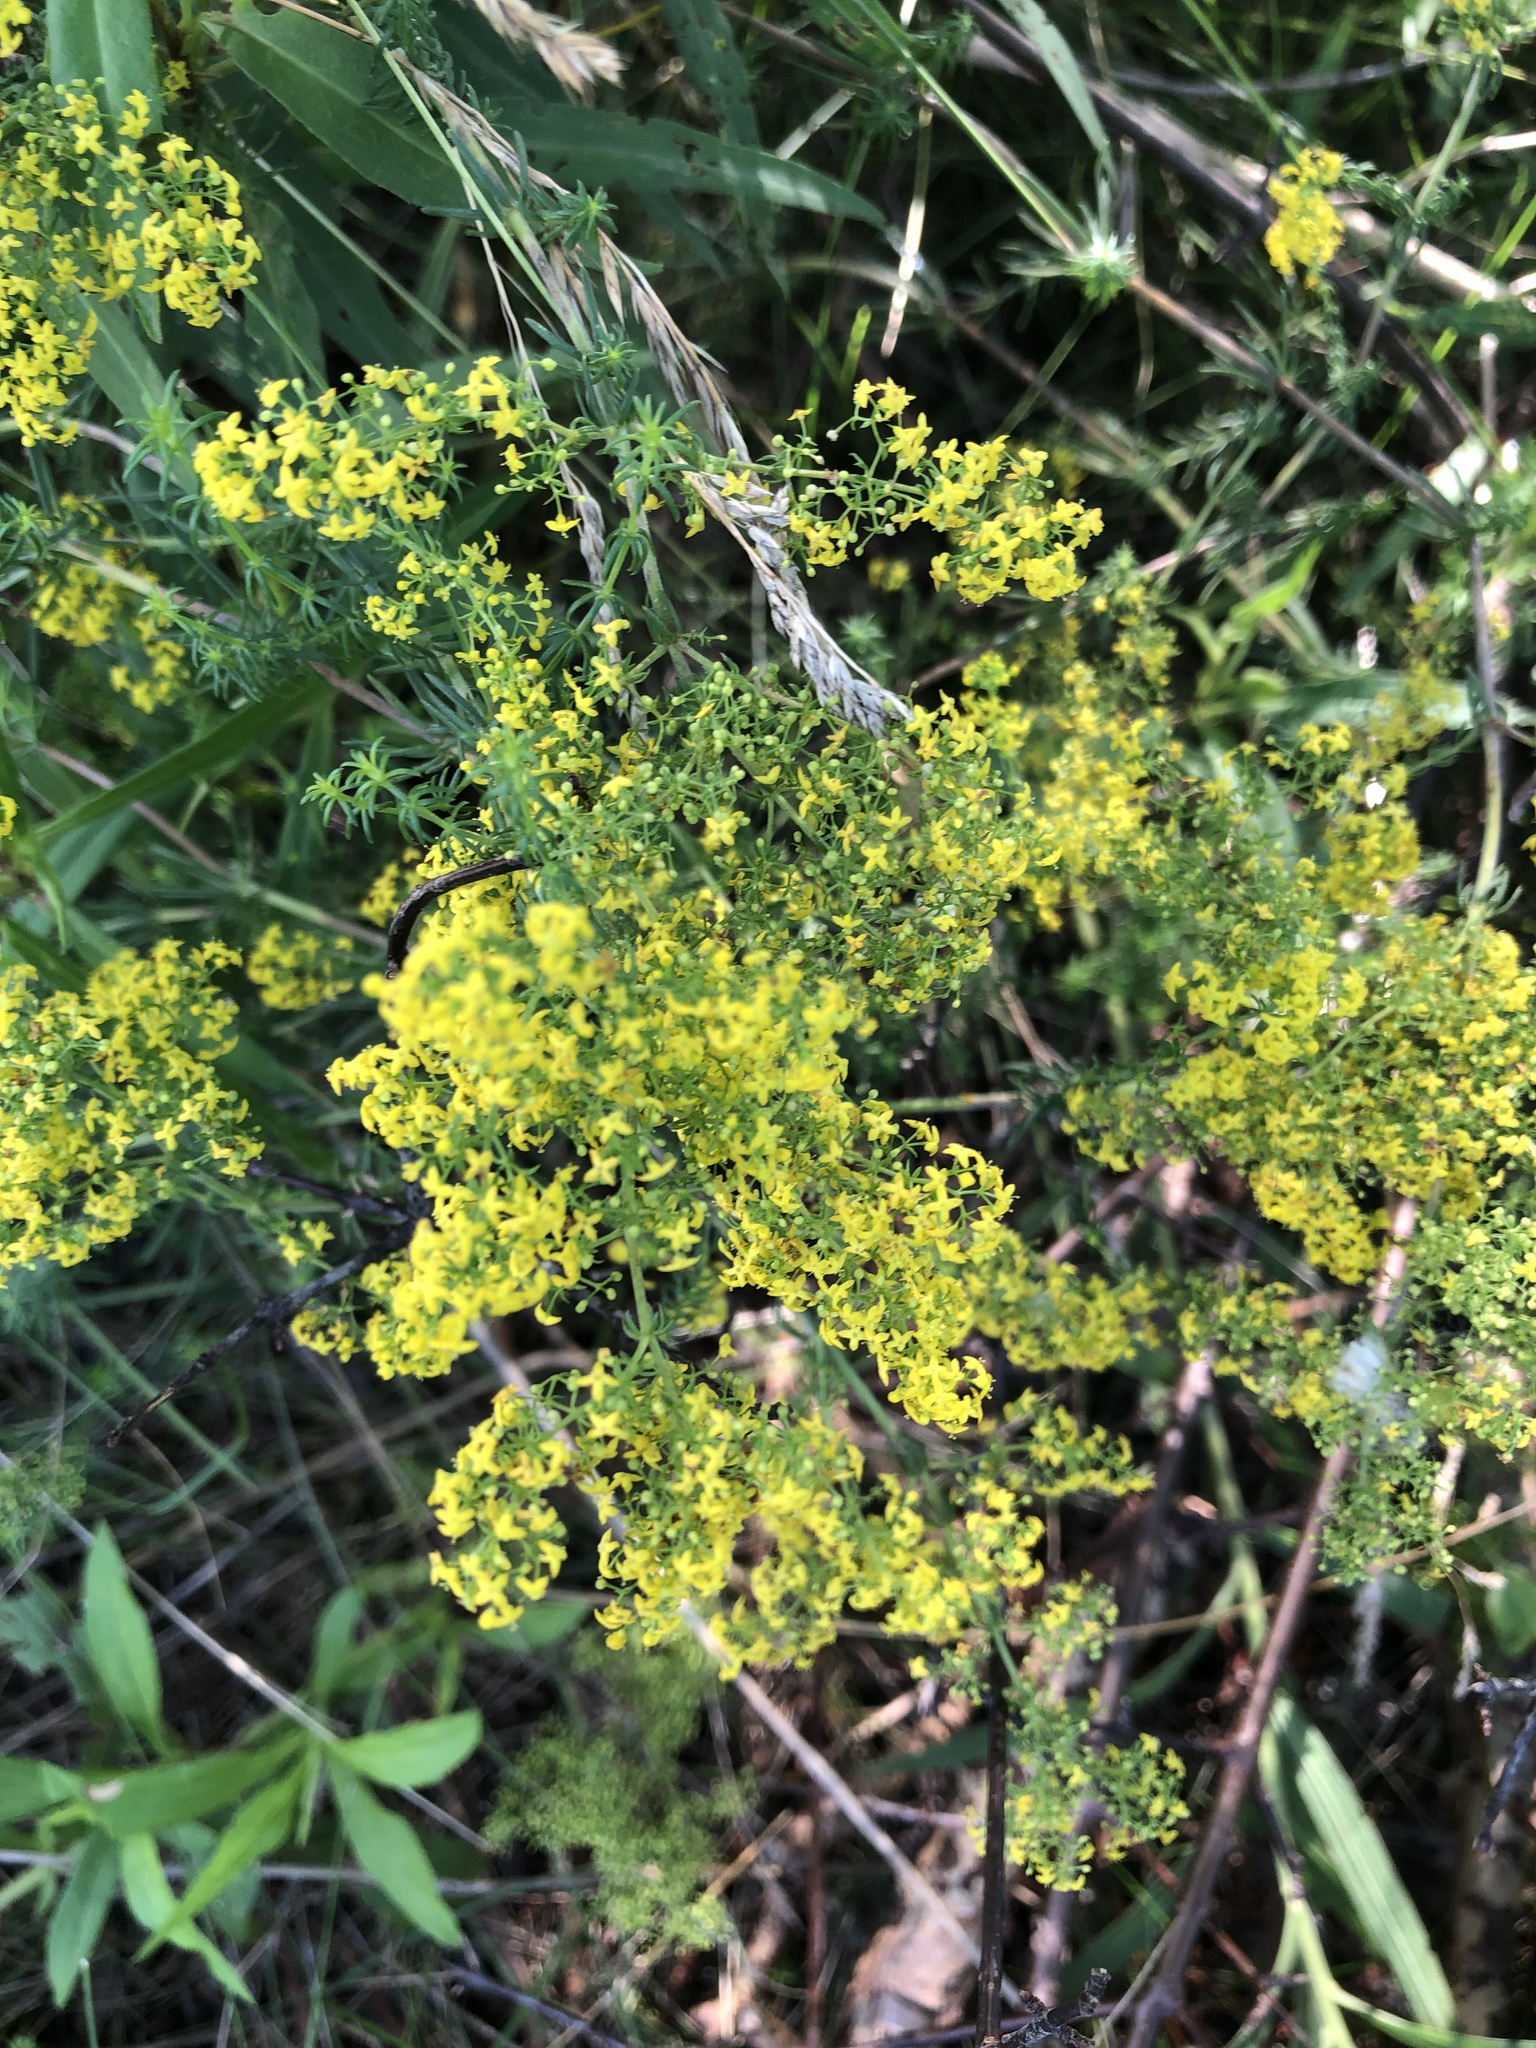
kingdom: Plantae
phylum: Tracheophyta
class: Magnoliopsida
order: Gentianales
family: Rubiaceae
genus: Galium
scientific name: Galium verum
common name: Lady's bedstraw
